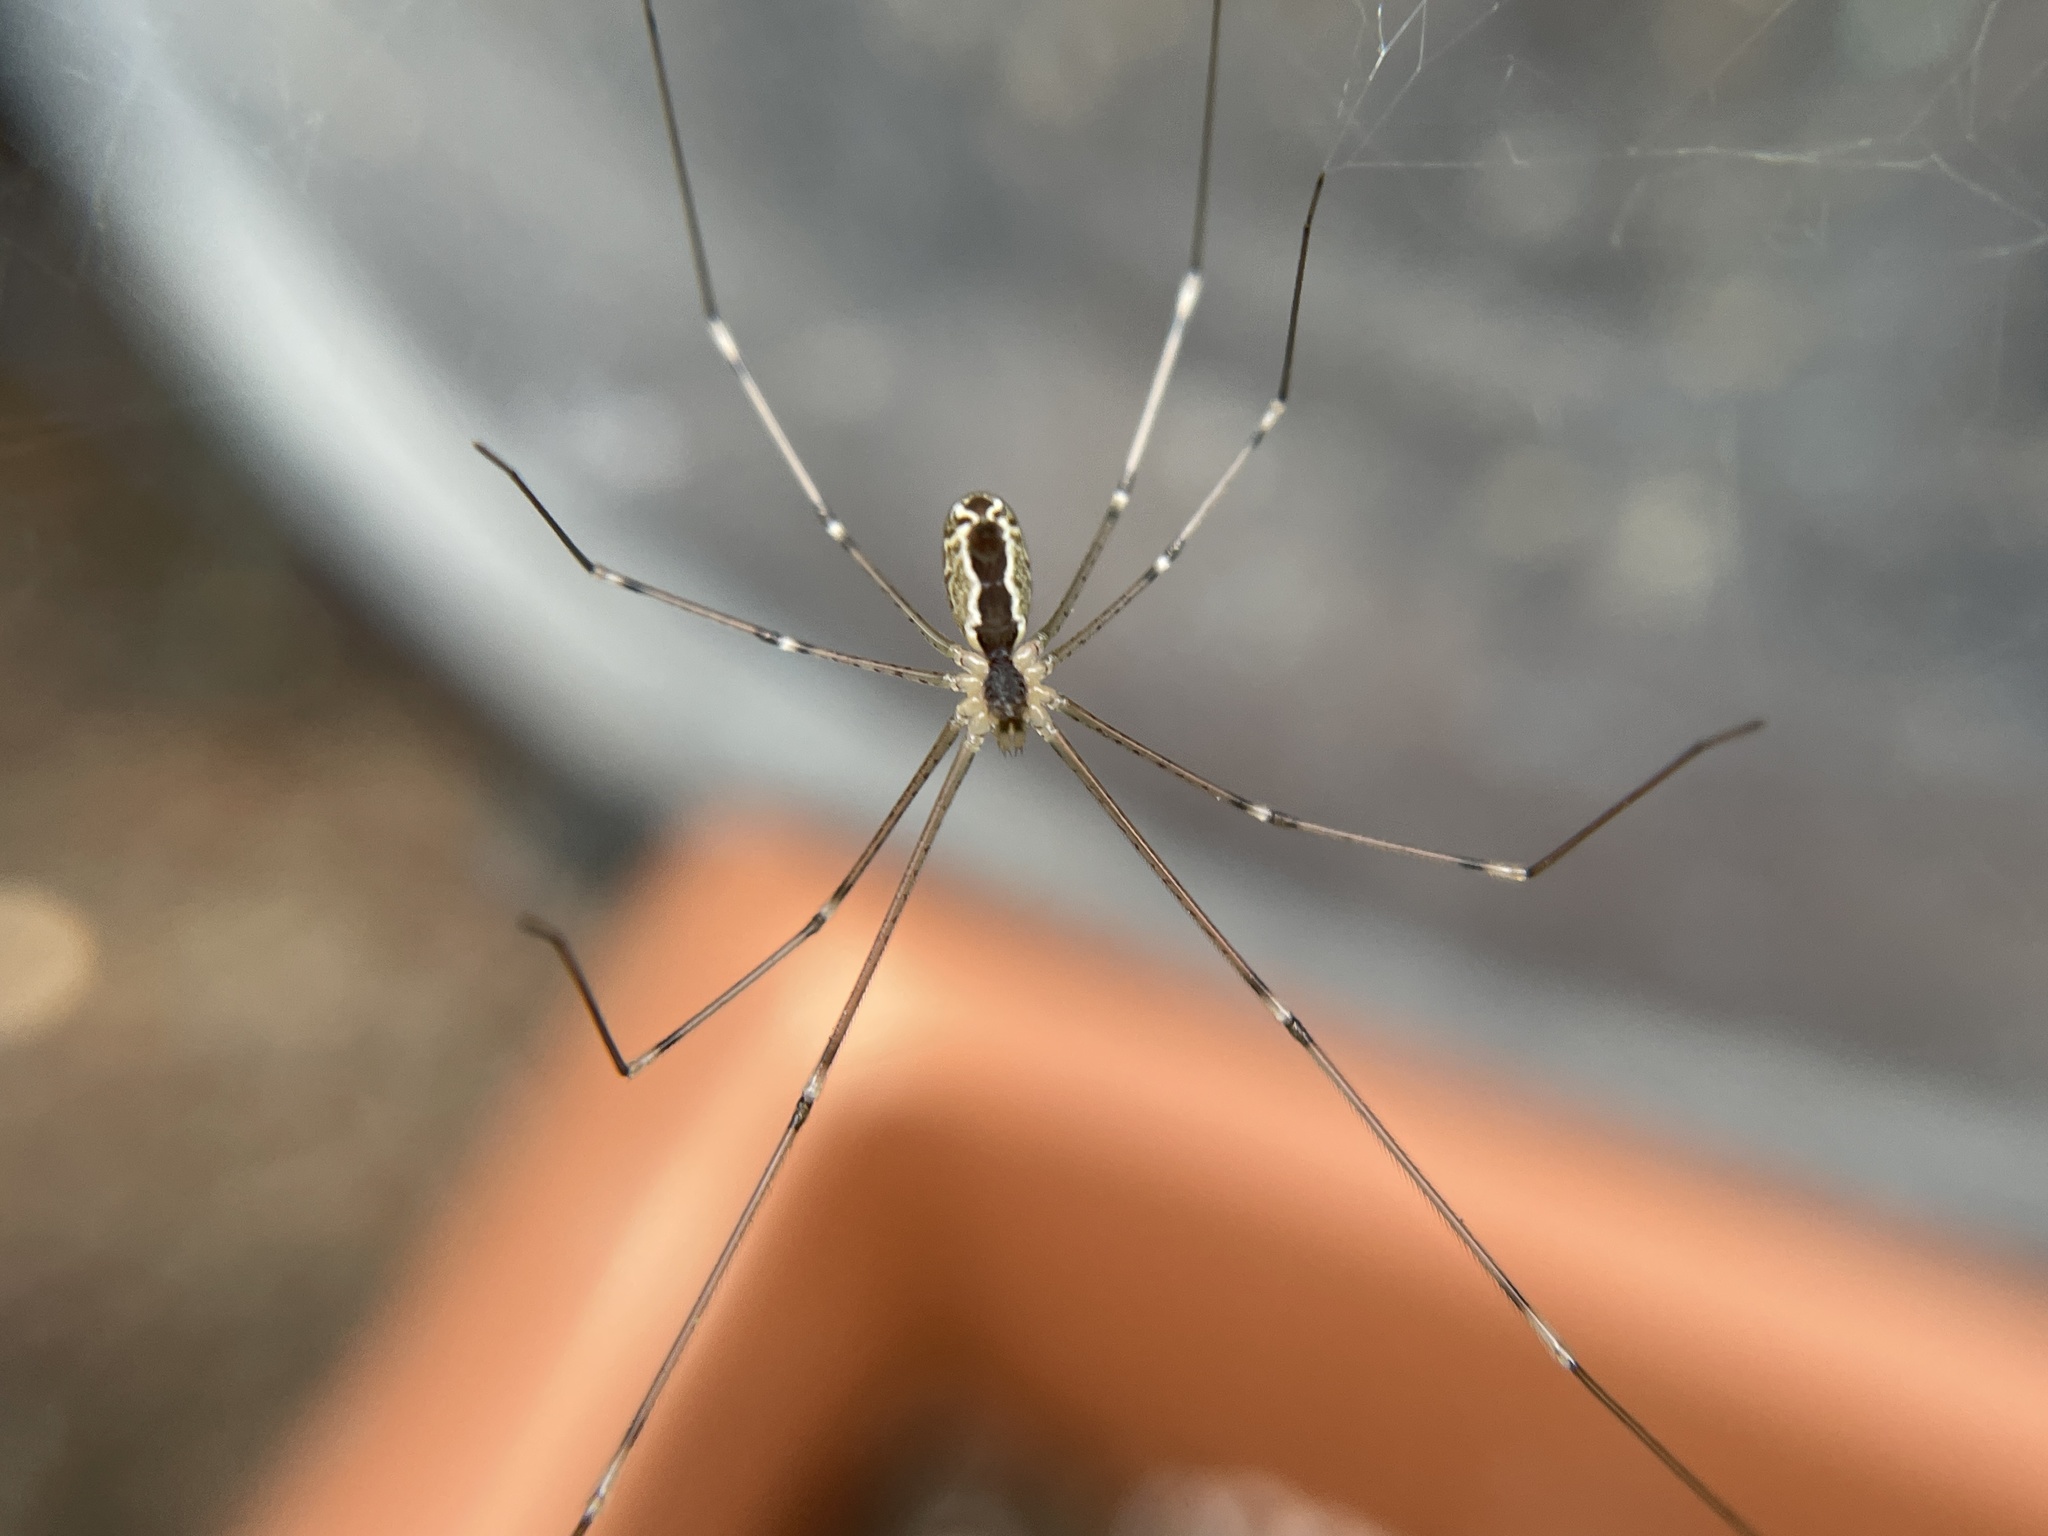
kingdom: Animalia
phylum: Arthropoda
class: Arachnida
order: Araneae
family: Pholcidae
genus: Holocnemus
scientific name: Holocnemus pluchei
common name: Marbled cellar spider
